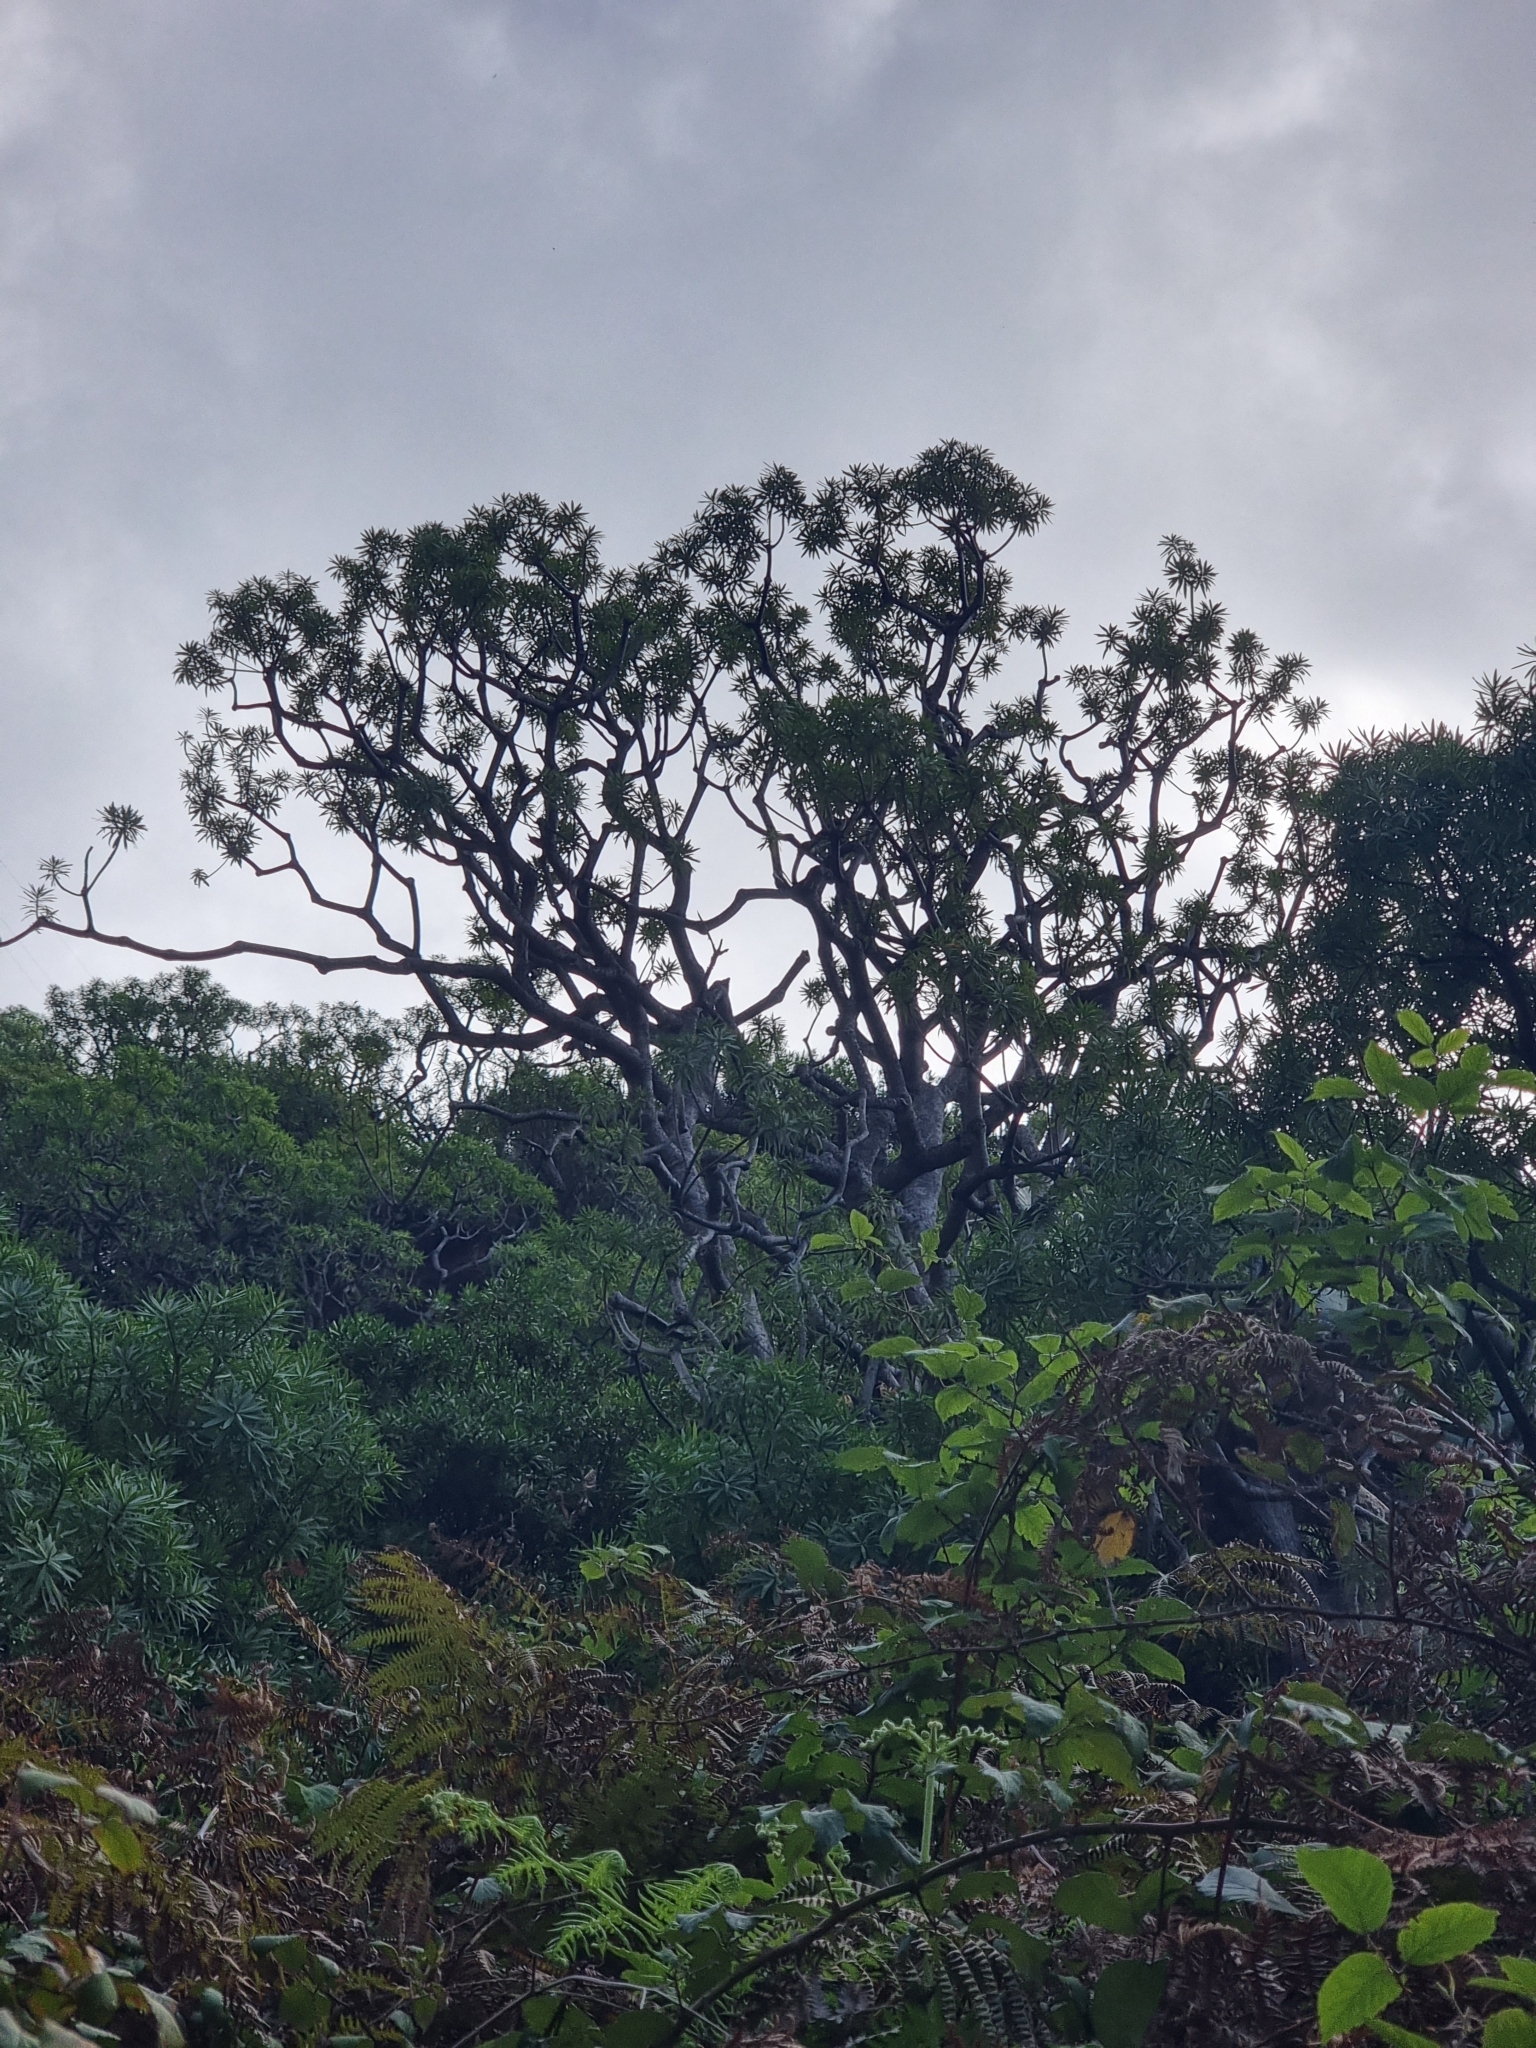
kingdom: Plantae
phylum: Tracheophyta
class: Magnoliopsida
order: Malpighiales
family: Euphorbiaceae
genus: Euphorbia
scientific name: Euphorbia piscatoria
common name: Fish-stunning spurge
